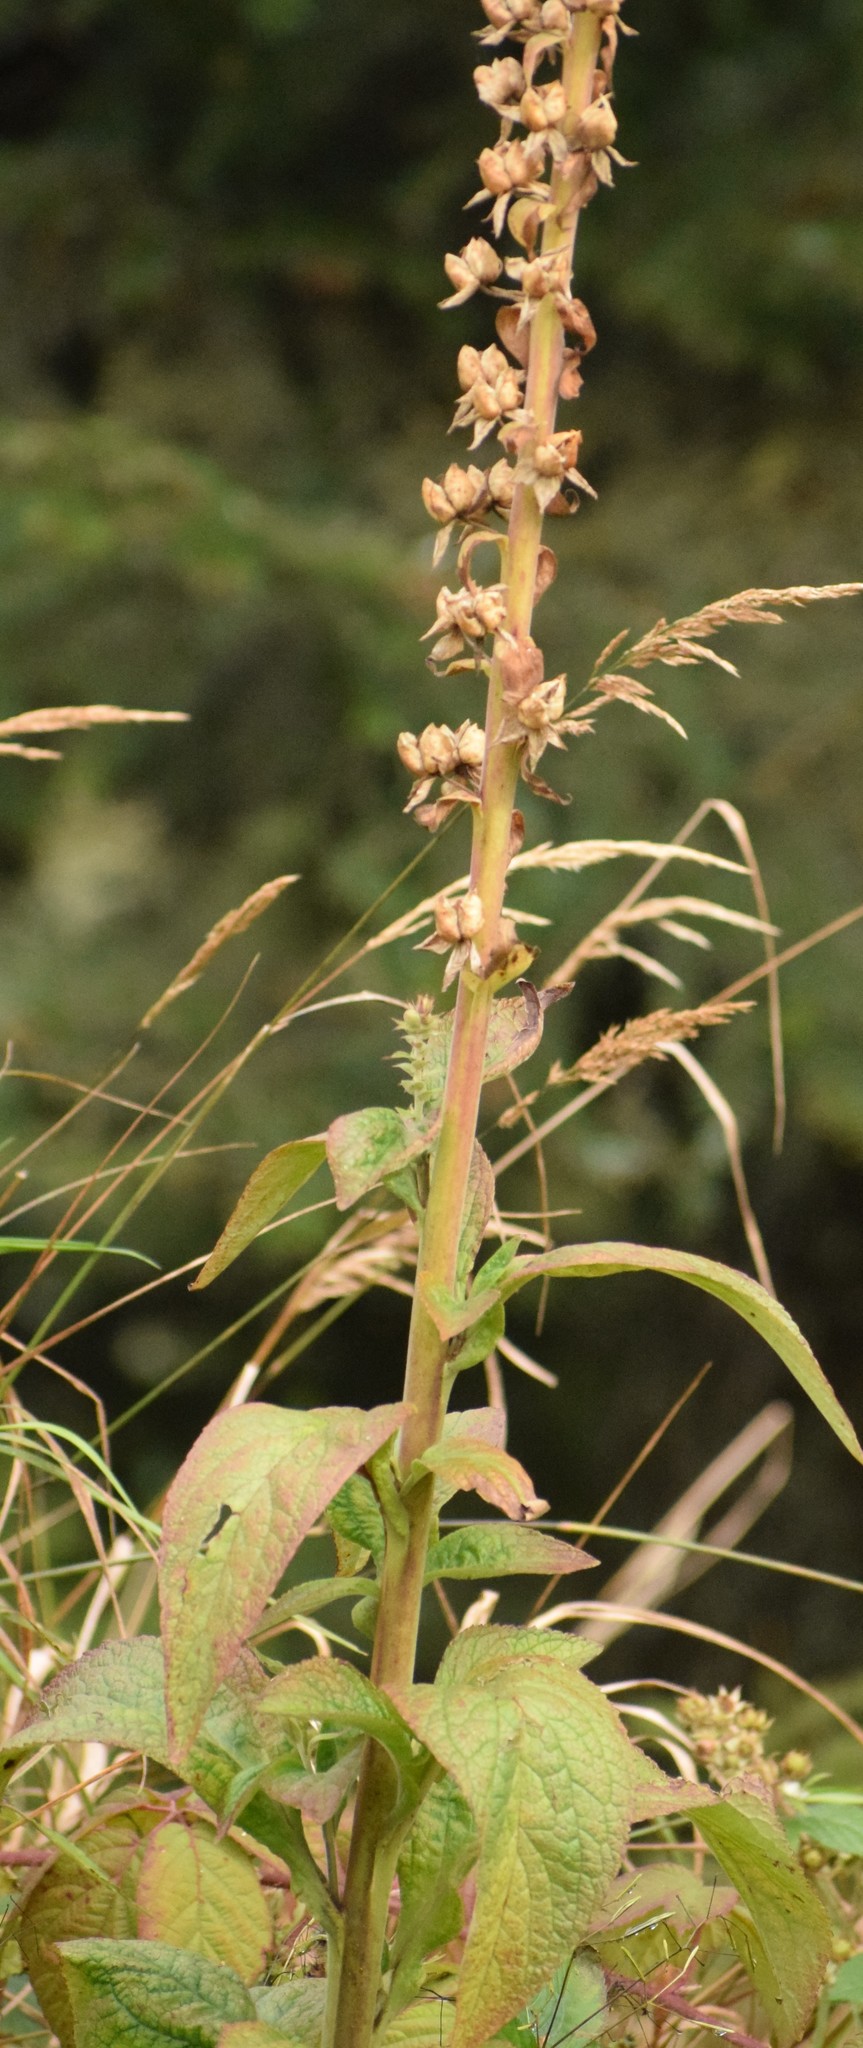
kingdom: Plantae
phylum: Tracheophyta
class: Magnoliopsida
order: Lamiales
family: Plantaginaceae
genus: Digitalis
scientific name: Digitalis purpurea
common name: Foxglove
